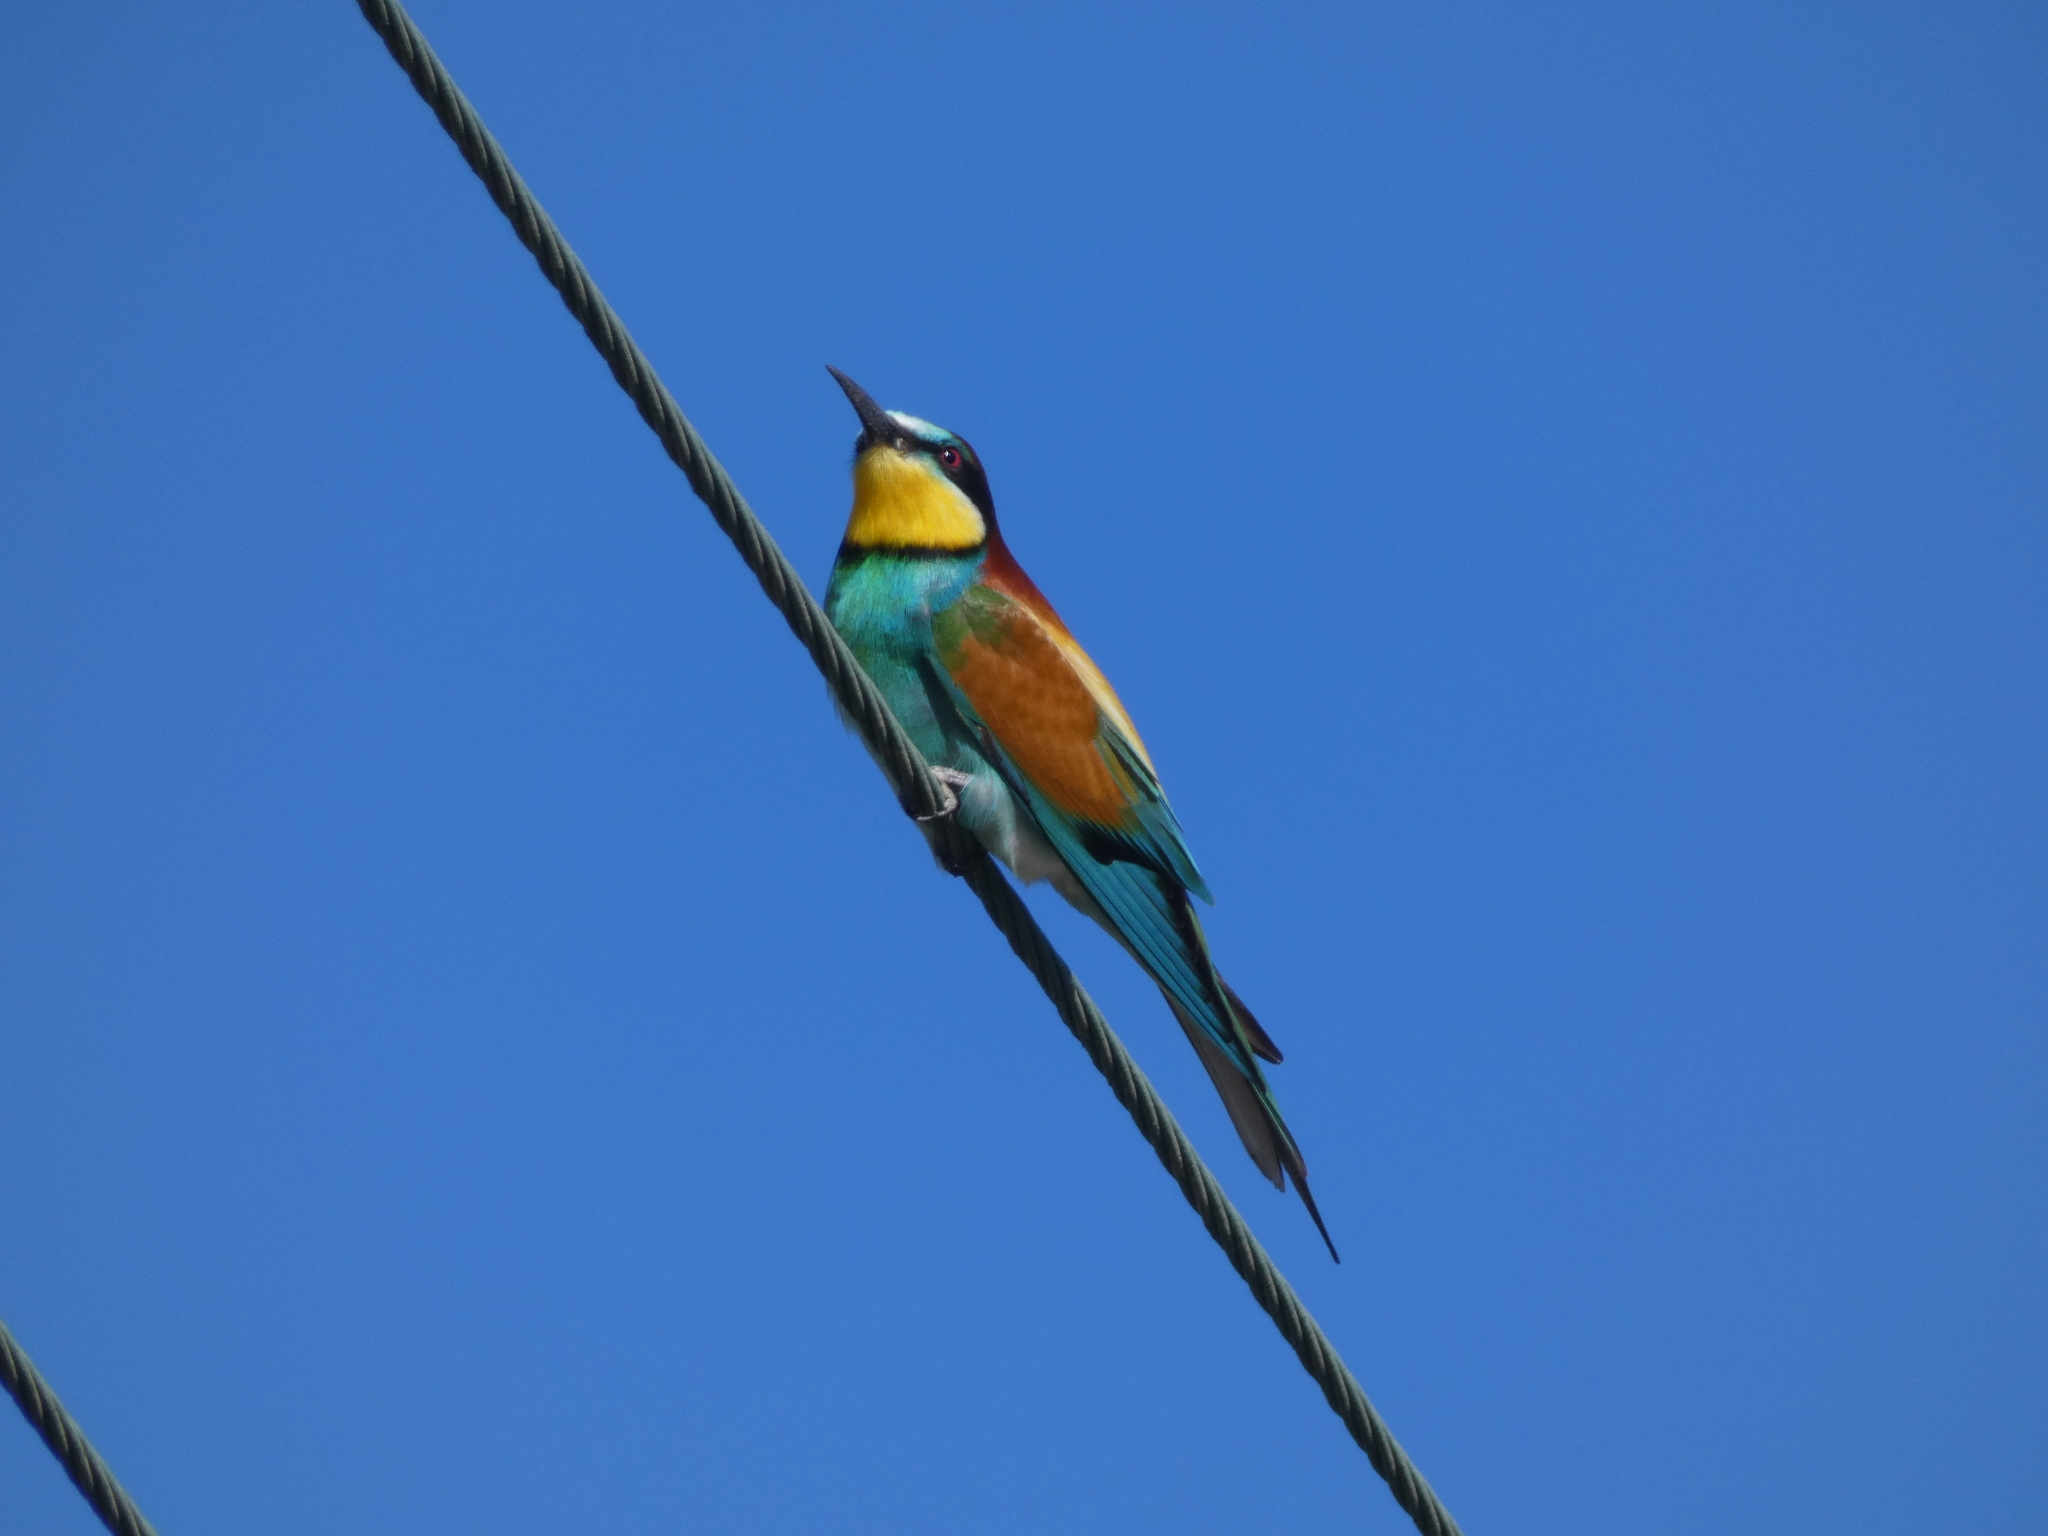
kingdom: Animalia
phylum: Chordata
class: Aves
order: Coraciiformes
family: Meropidae
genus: Merops
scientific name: Merops apiaster
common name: European bee-eater
